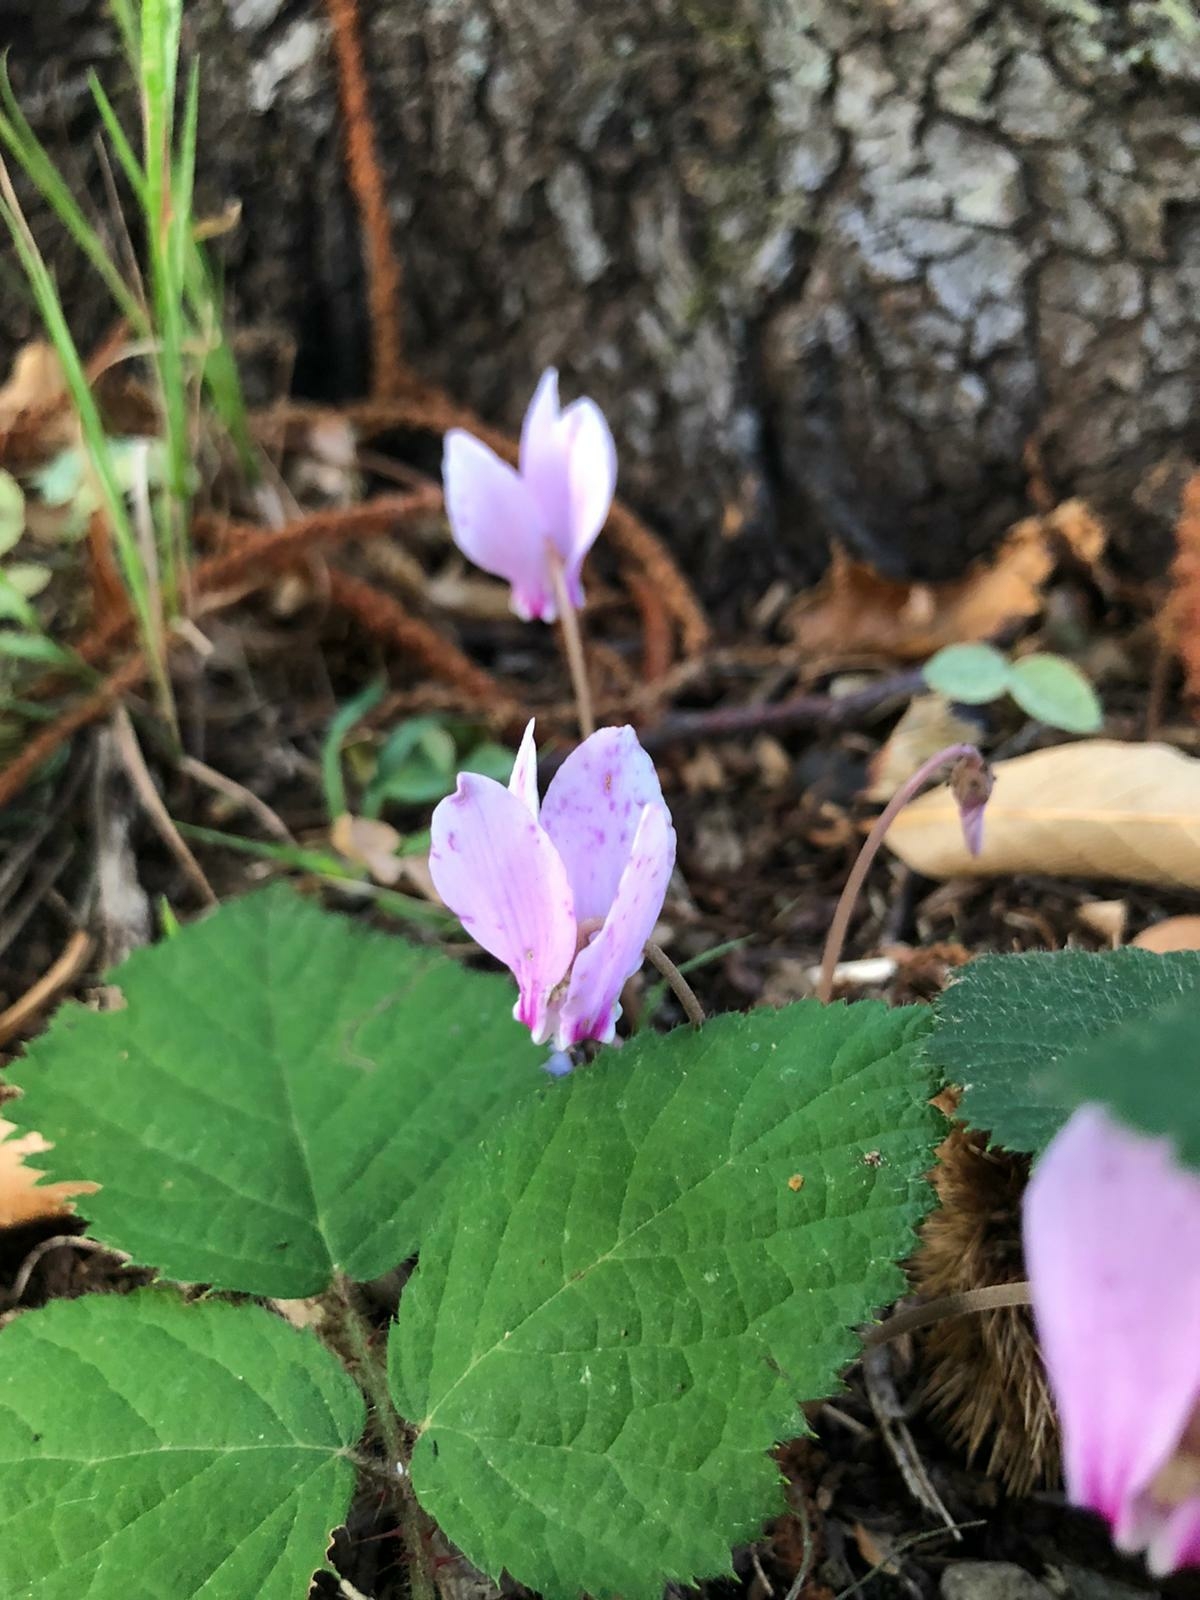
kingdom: Plantae
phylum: Tracheophyta
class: Magnoliopsida
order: Ericales
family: Primulaceae
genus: Cyclamen
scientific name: Cyclamen hederifolium
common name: Sowbread
